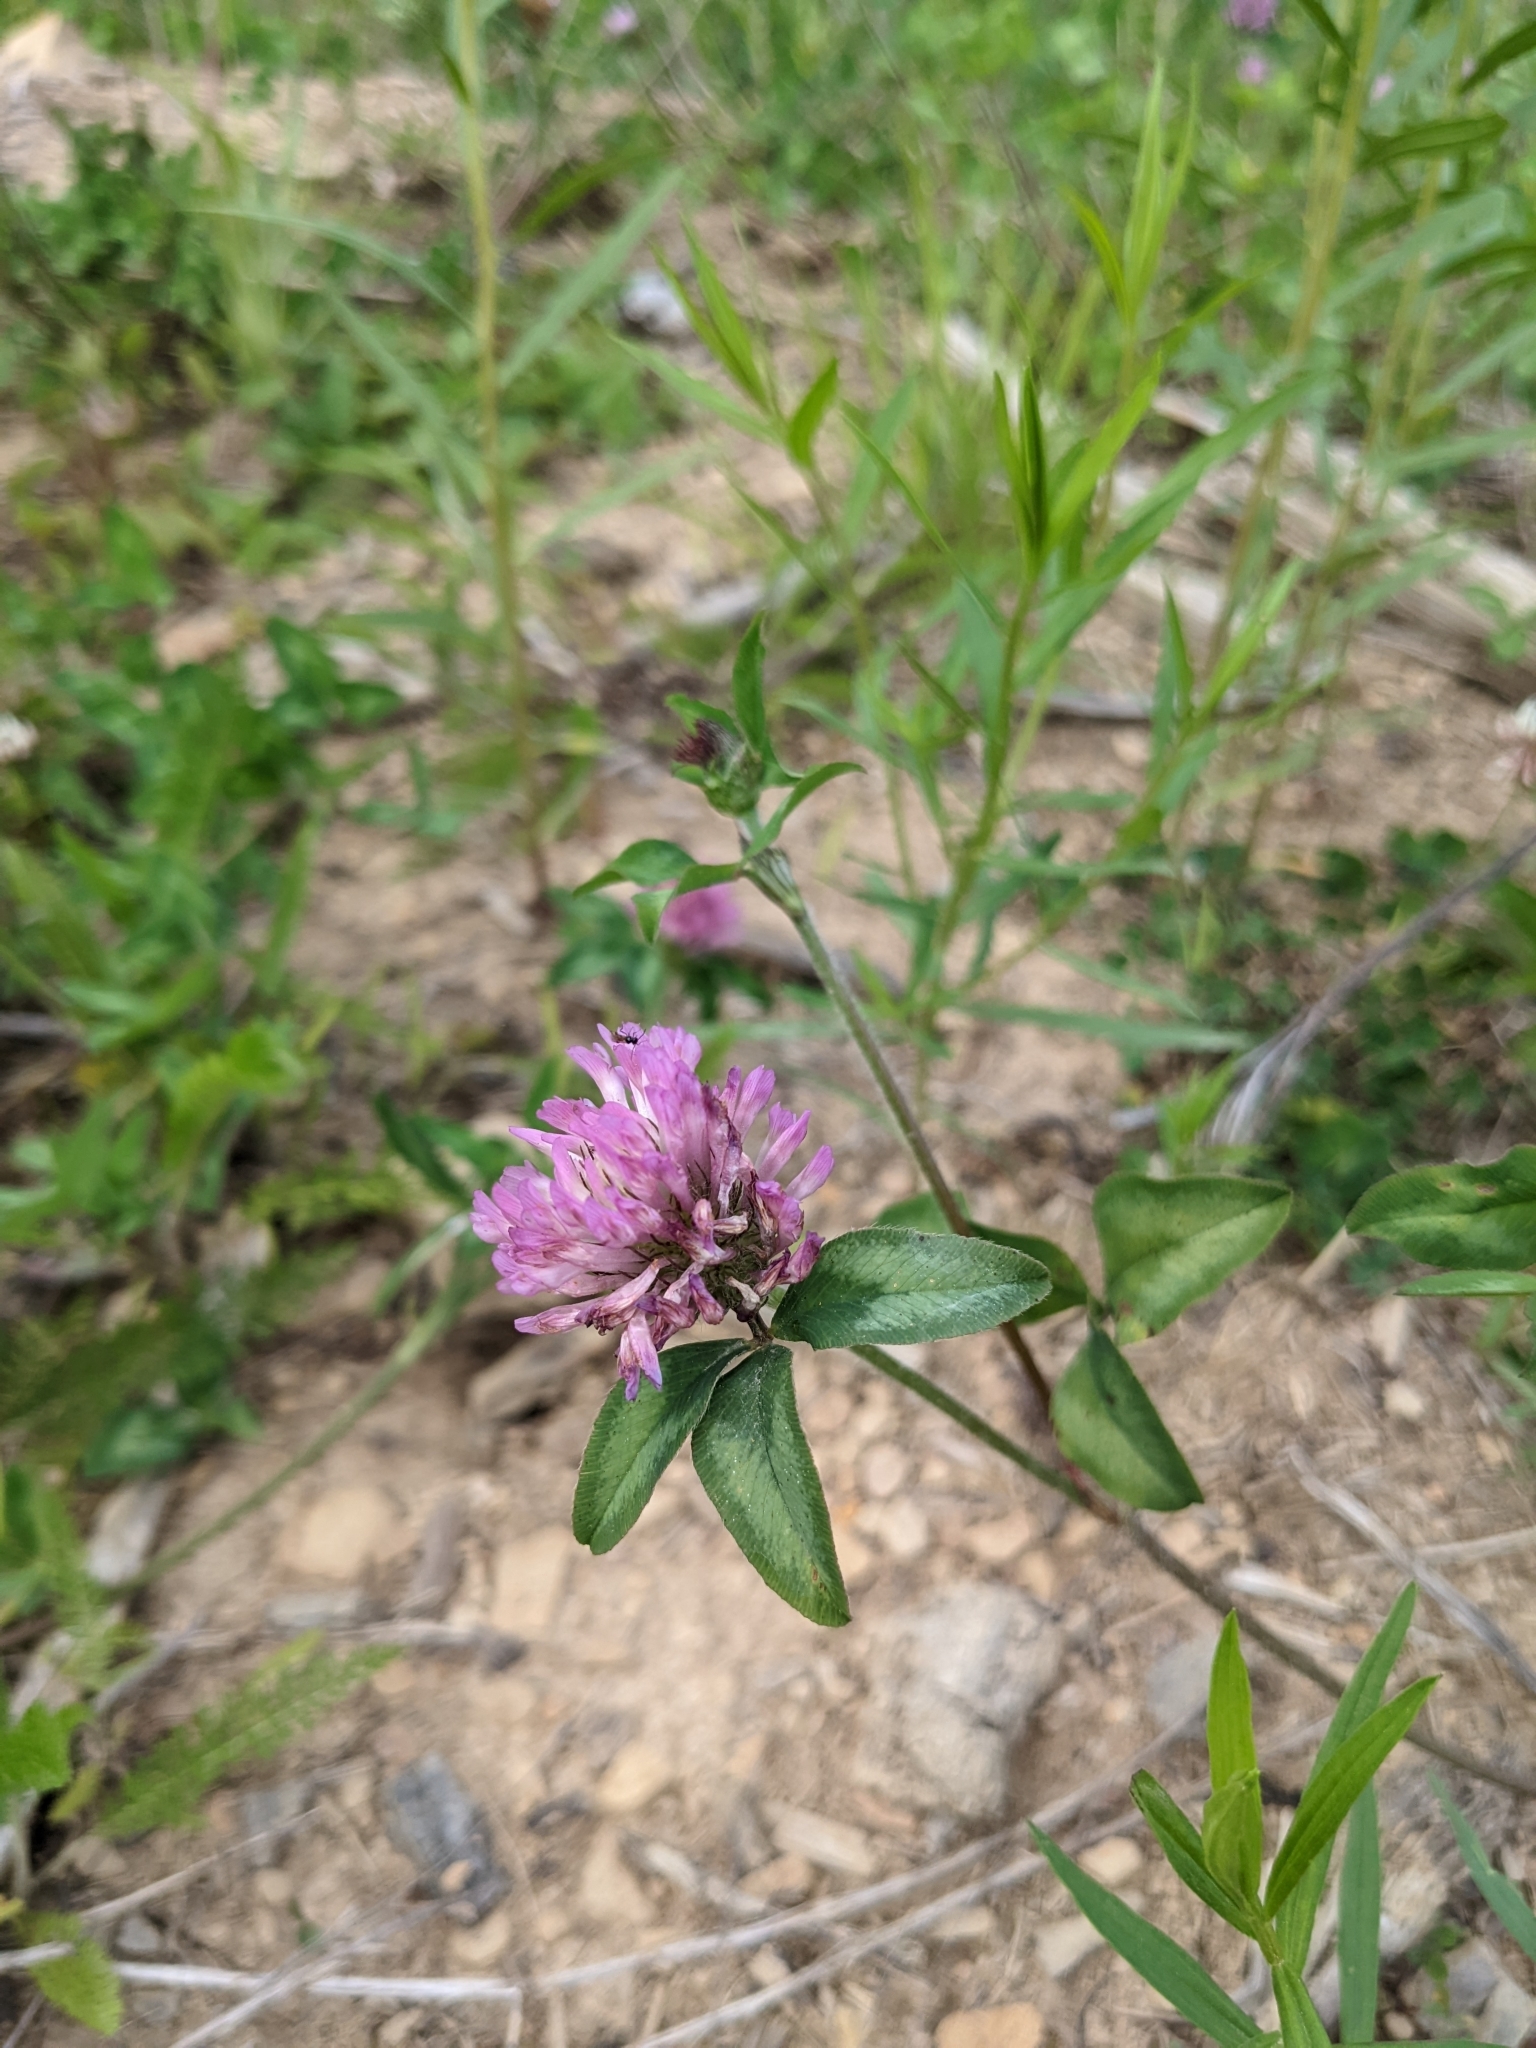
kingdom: Plantae
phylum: Tracheophyta
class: Magnoliopsida
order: Fabales
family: Fabaceae
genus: Trifolium
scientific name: Trifolium pratense
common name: Red clover
